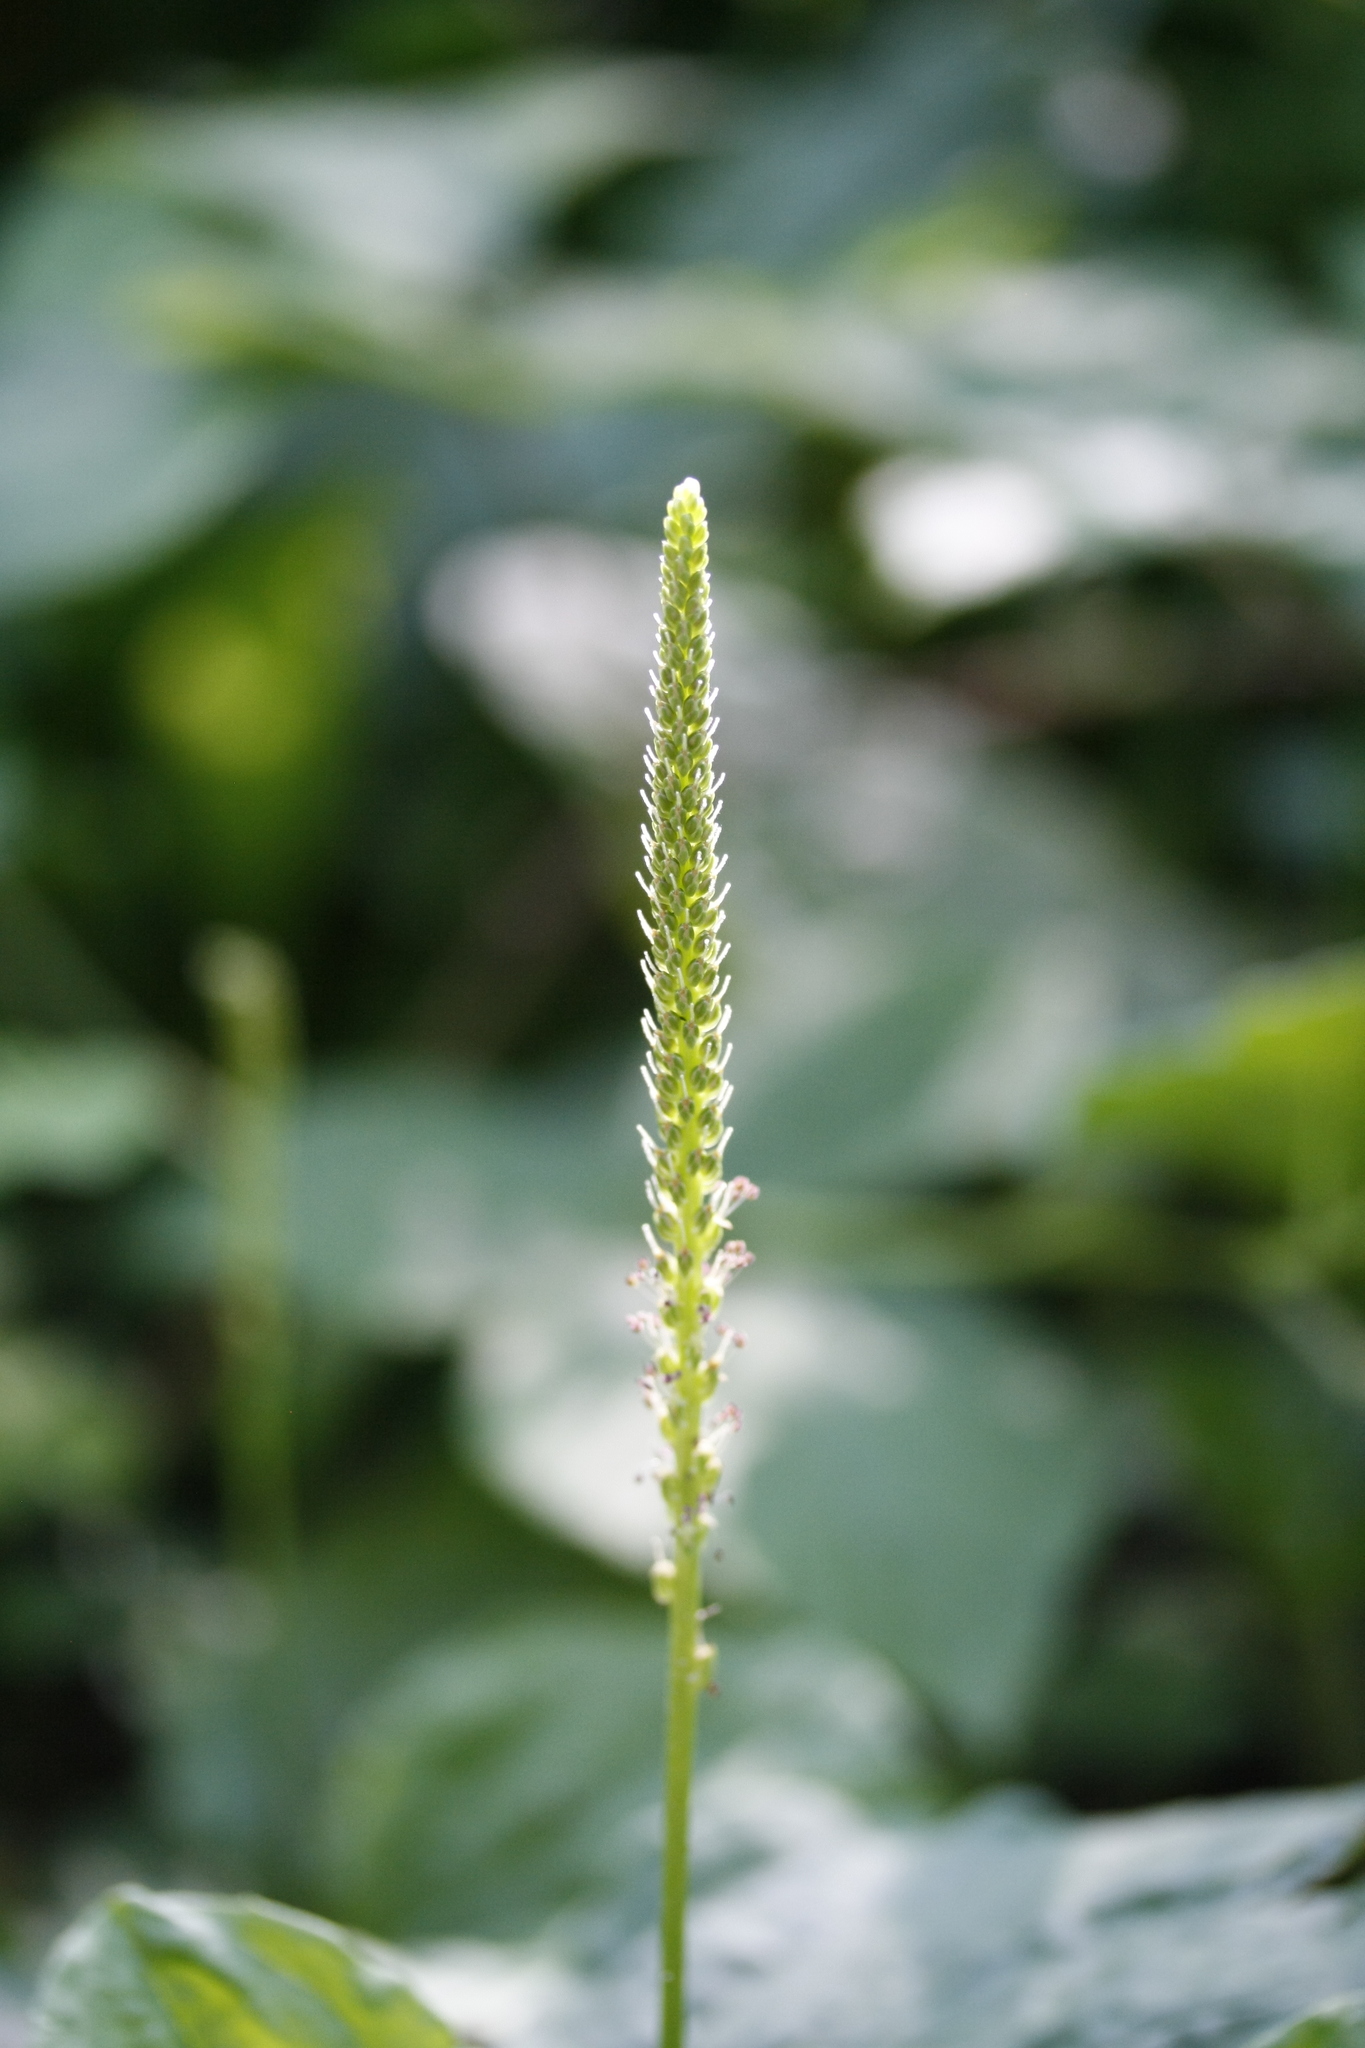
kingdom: Plantae
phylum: Tracheophyta
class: Magnoliopsida
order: Lamiales
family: Plantaginaceae
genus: Plantago
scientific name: Plantago major
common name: Common plantain
